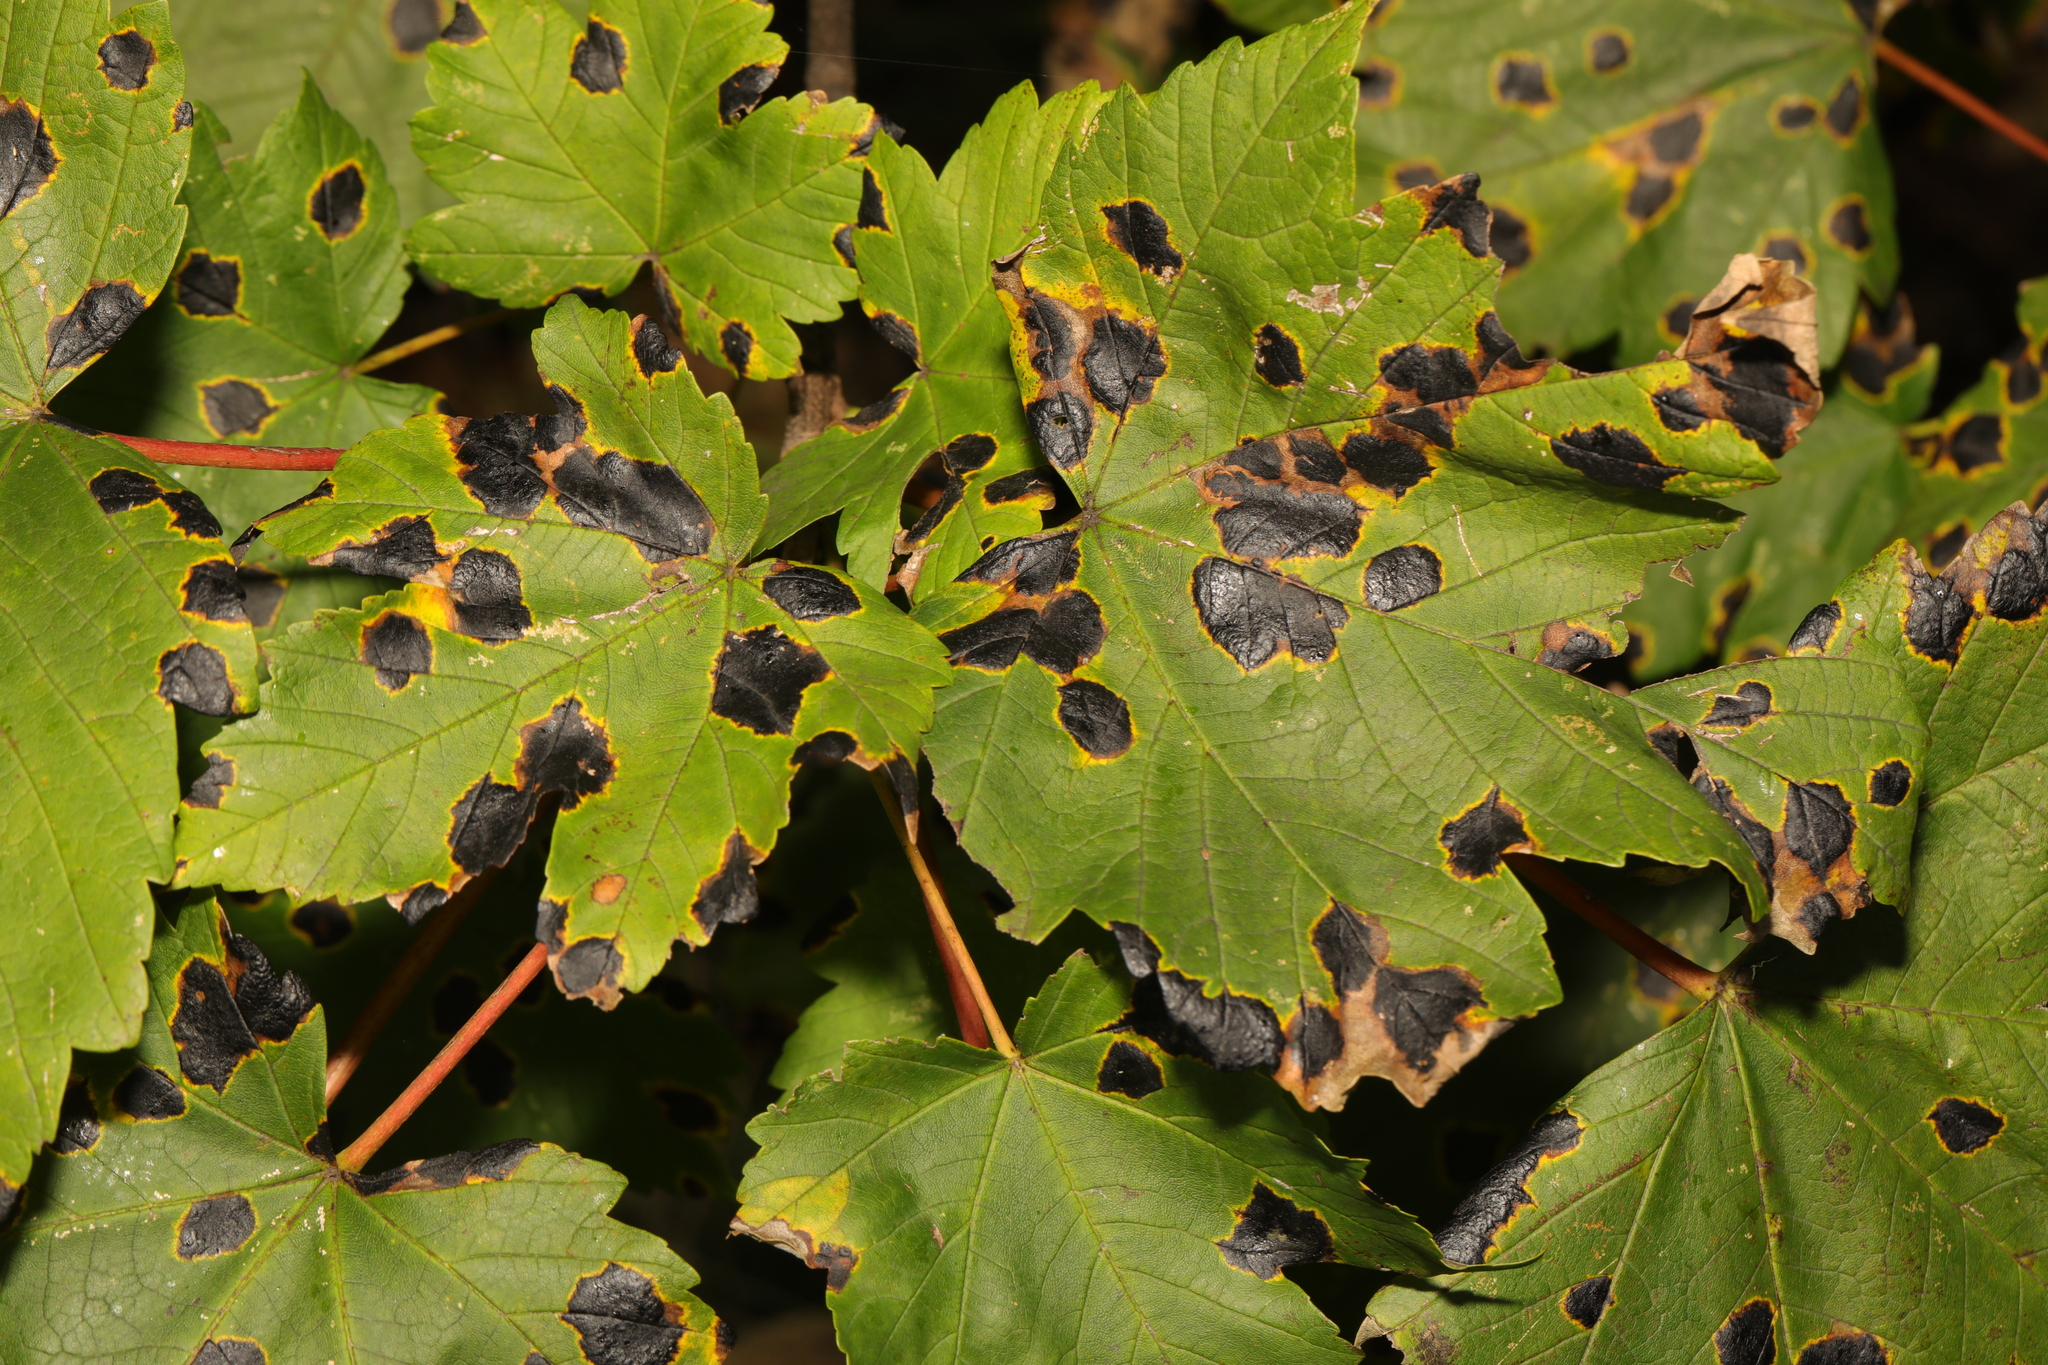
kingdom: Plantae
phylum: Tracheophyta
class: Magnoliopsida
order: Sapindales
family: Sapindaceae
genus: Acer
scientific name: Acer pseudoplatanus
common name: Sycamore
